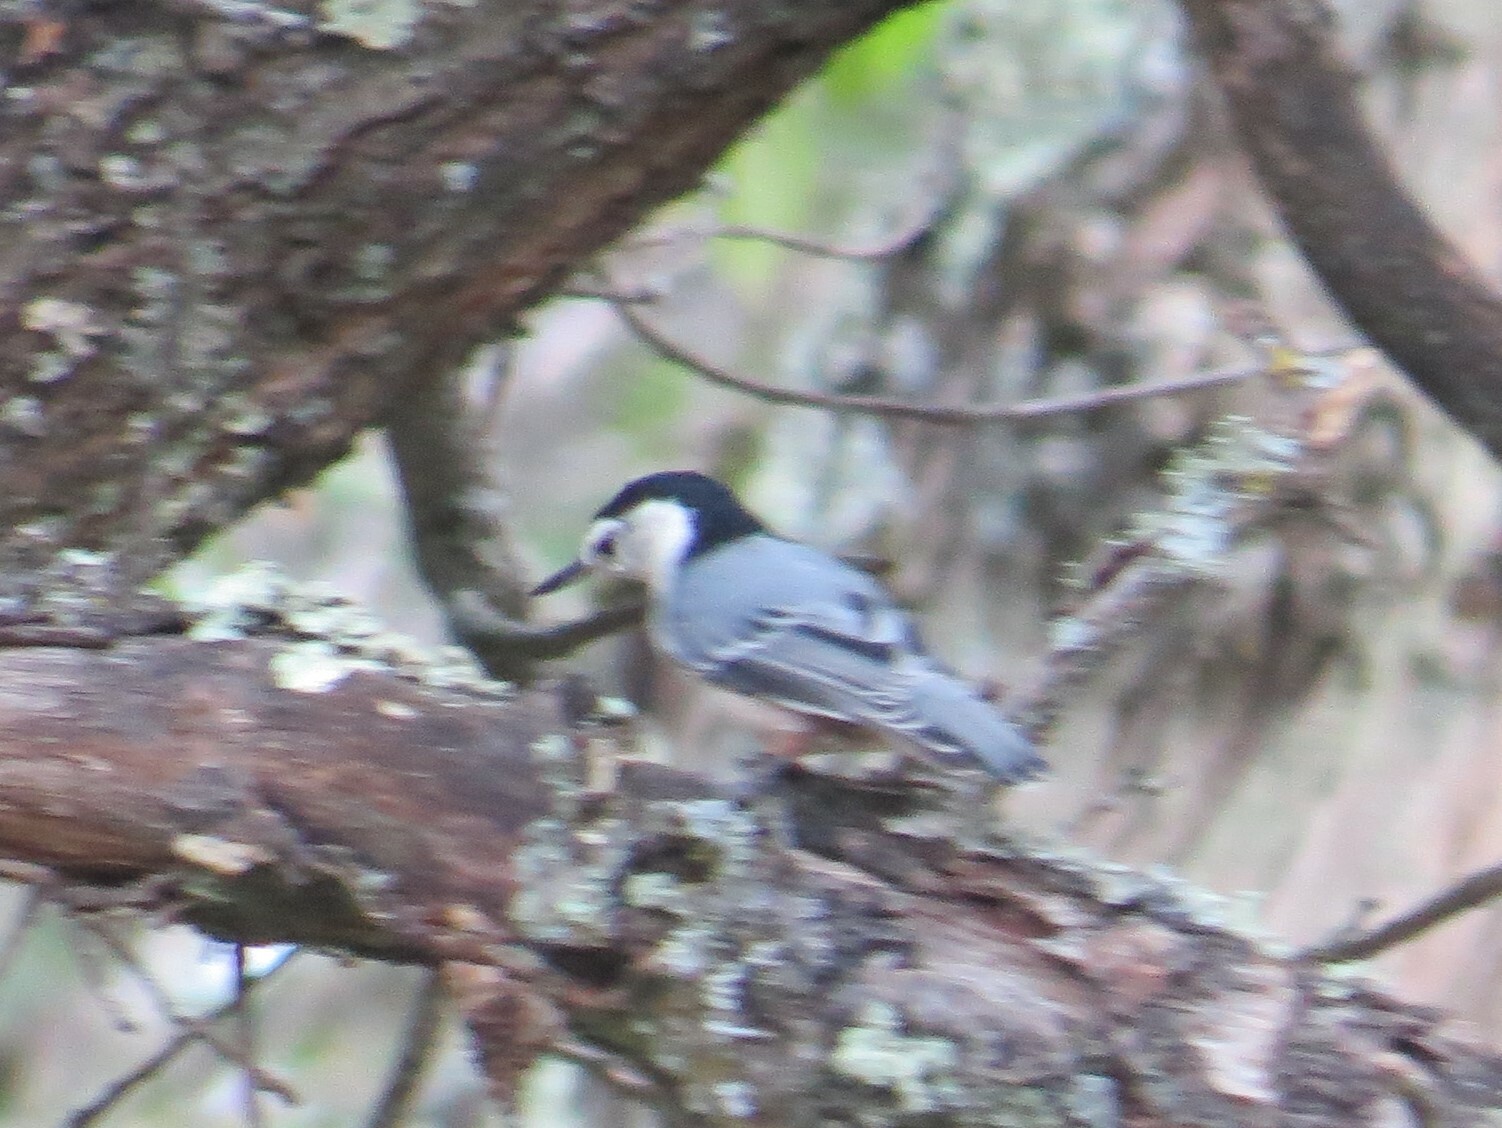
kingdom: Animalia
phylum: Chordata
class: Aves
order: Passeriformes
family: Sittidae
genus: Sitta
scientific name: Sitta carolinensis
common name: White-breasted nuthatch
